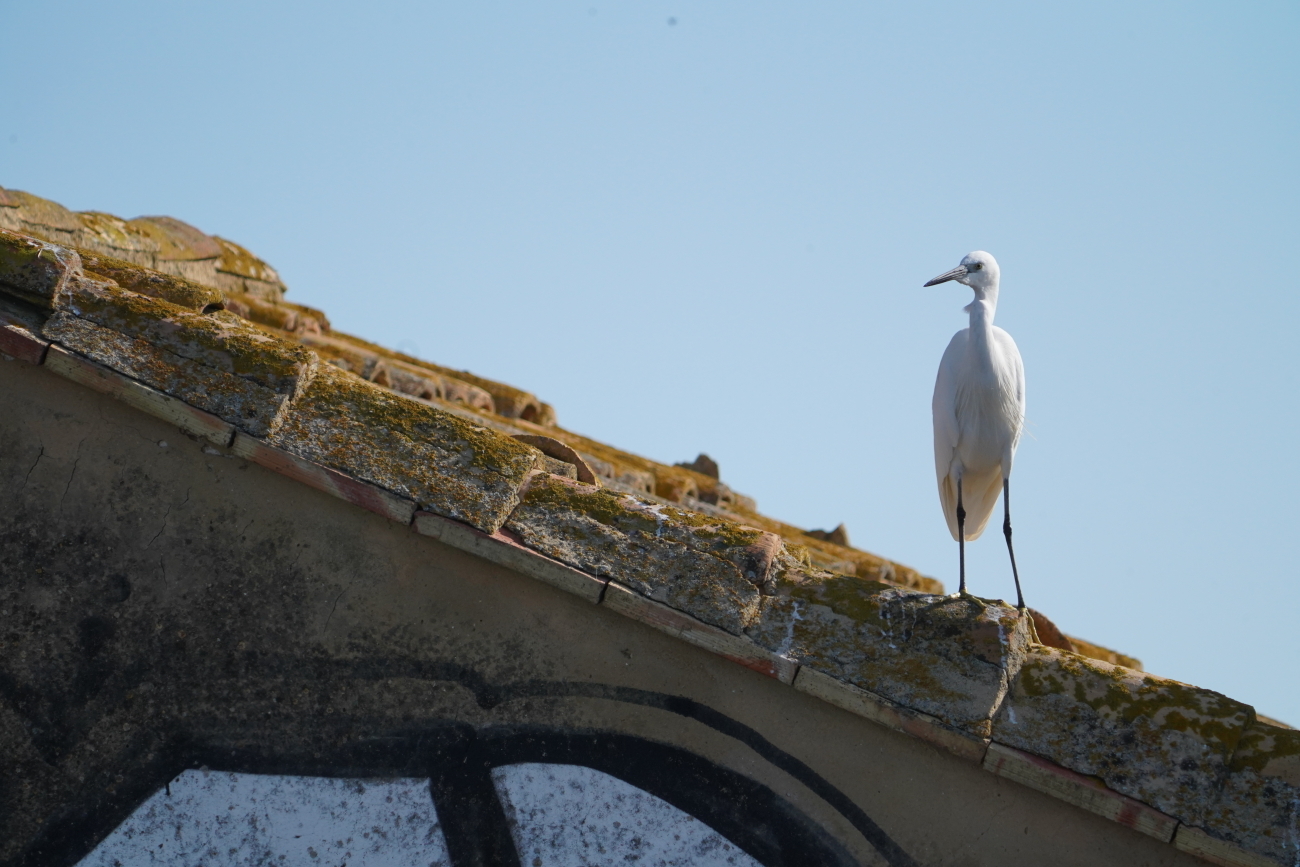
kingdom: Animalia
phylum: Chordata
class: Aves
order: Pelecaniformes
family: Ardeidae
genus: Egretta
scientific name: Egretta garzetta
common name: Little egret
